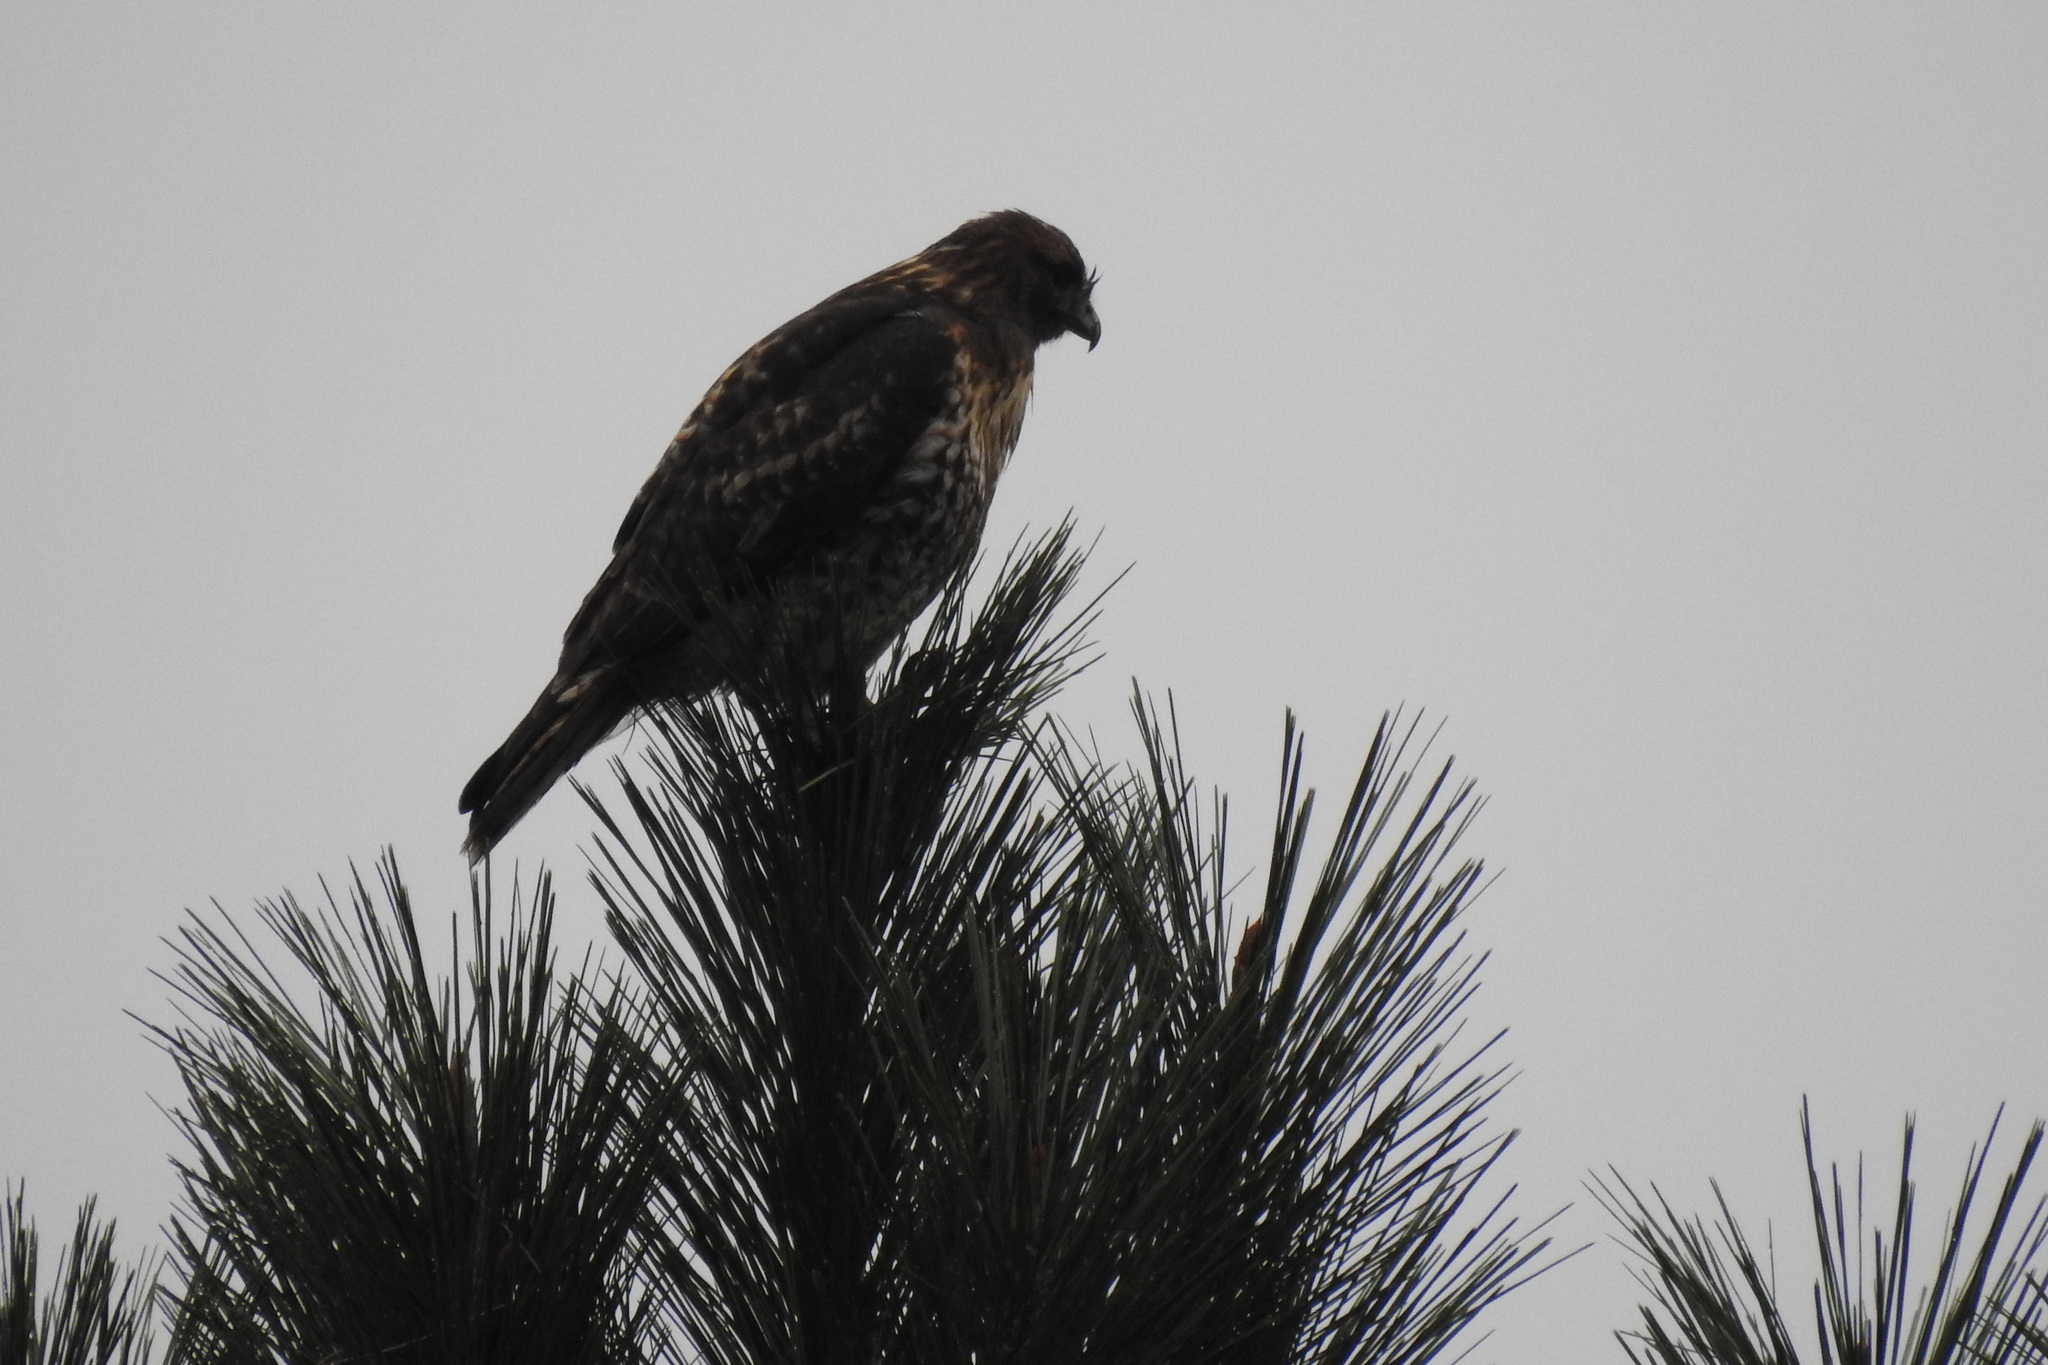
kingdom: Animalia
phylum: Chordata
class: Aves
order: Accipitriformes
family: Accipitridae
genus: Buteo
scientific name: Buteo jamaicensis
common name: Red-tailed hawk
